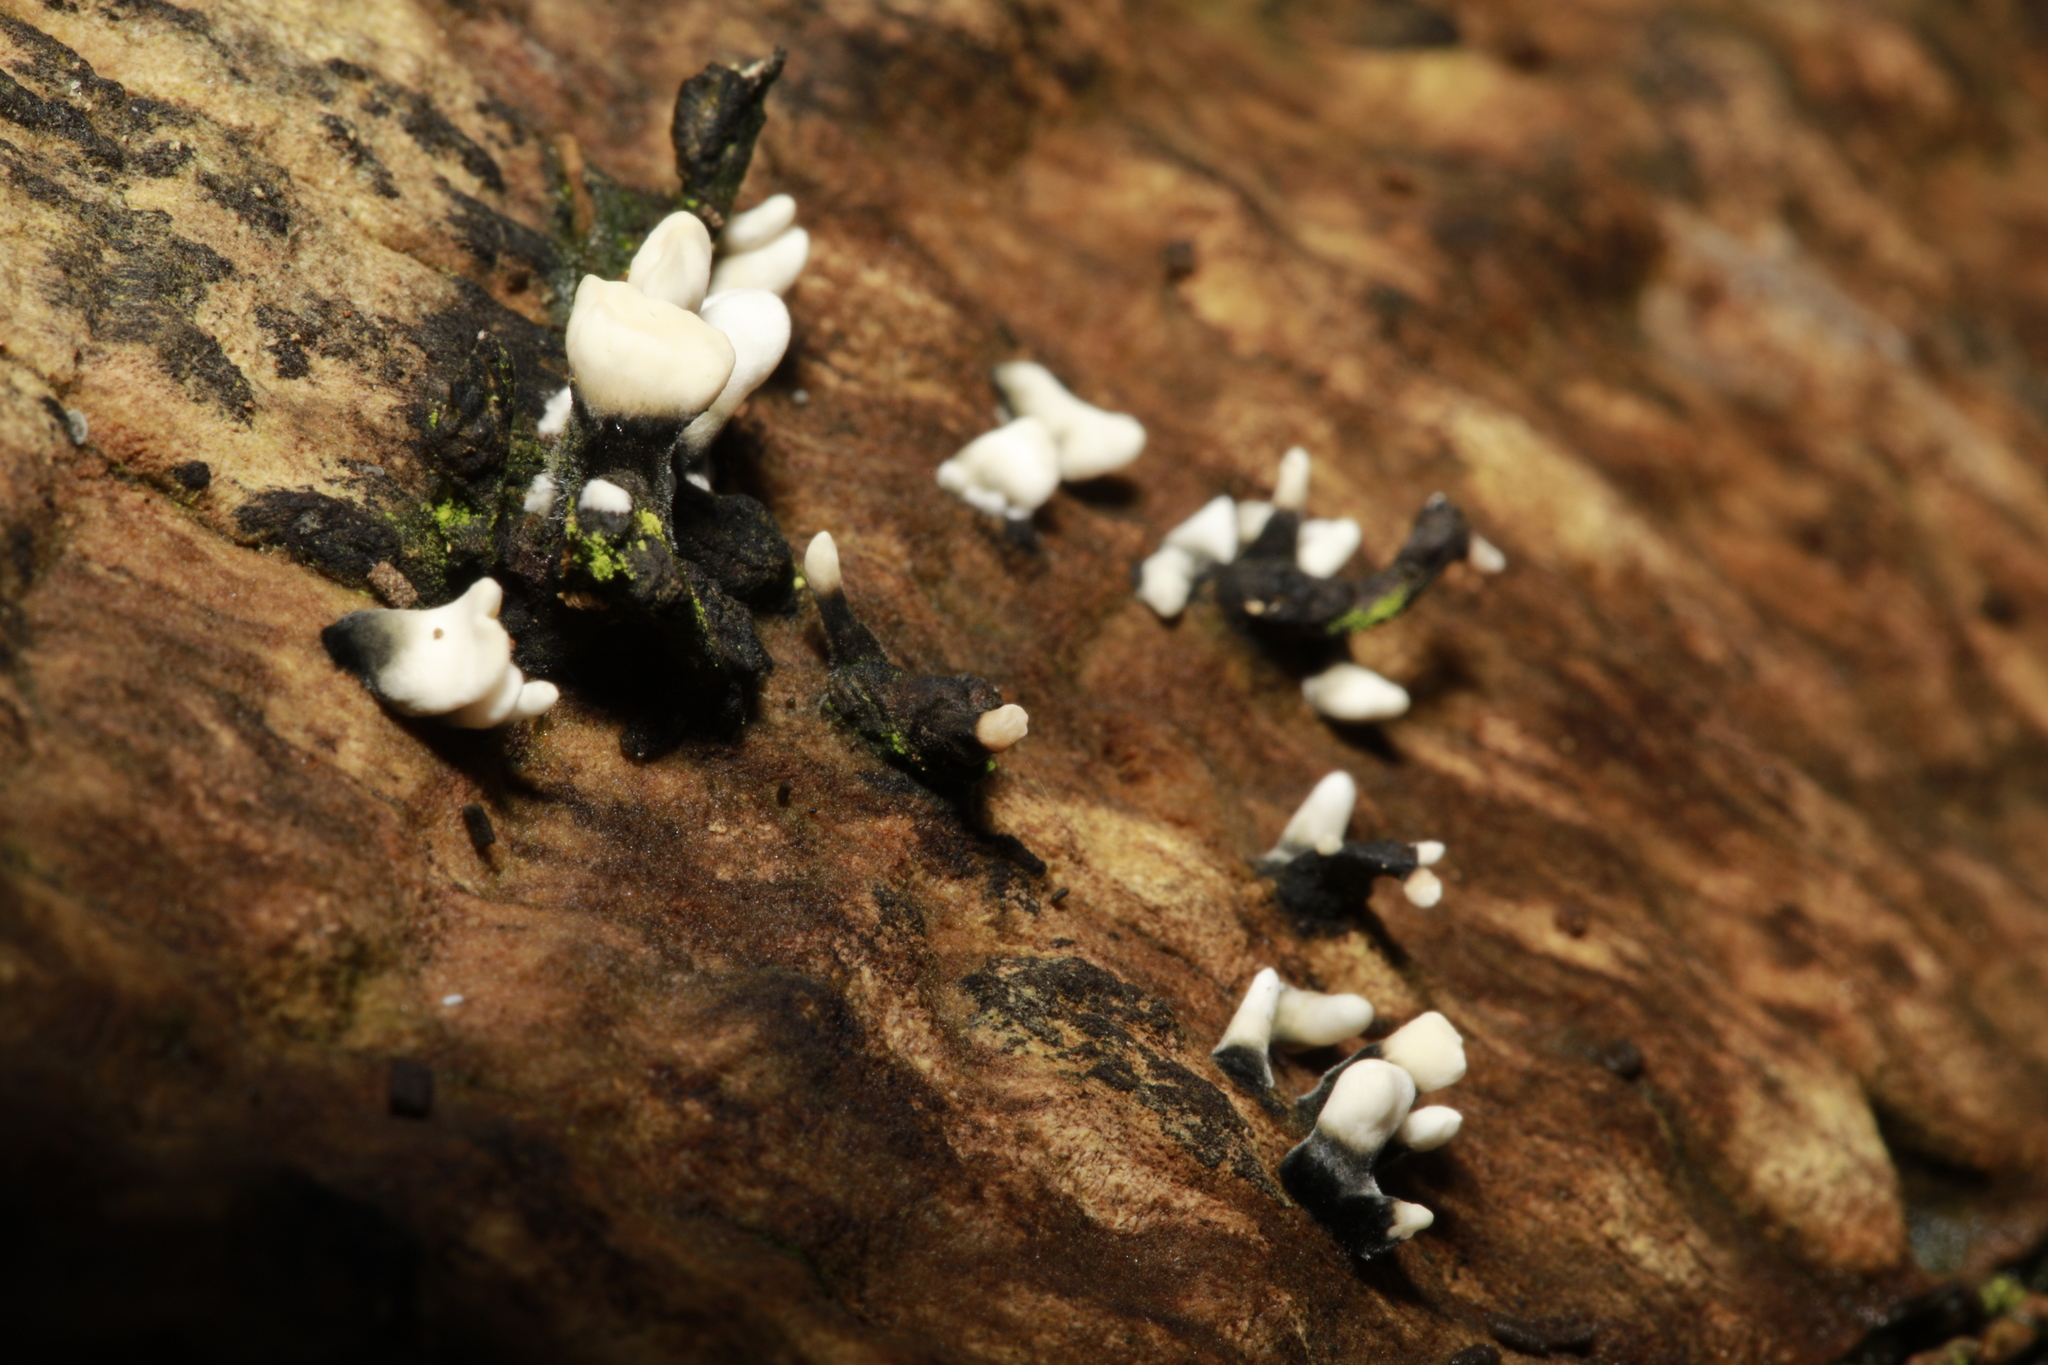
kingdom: Fungi
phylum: Ascomycota
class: Sordariomycetes
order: Xylariales
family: Xylariaceae
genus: Xylaria
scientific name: Xylaria hypoxylon
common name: Candle-snuff fungus
